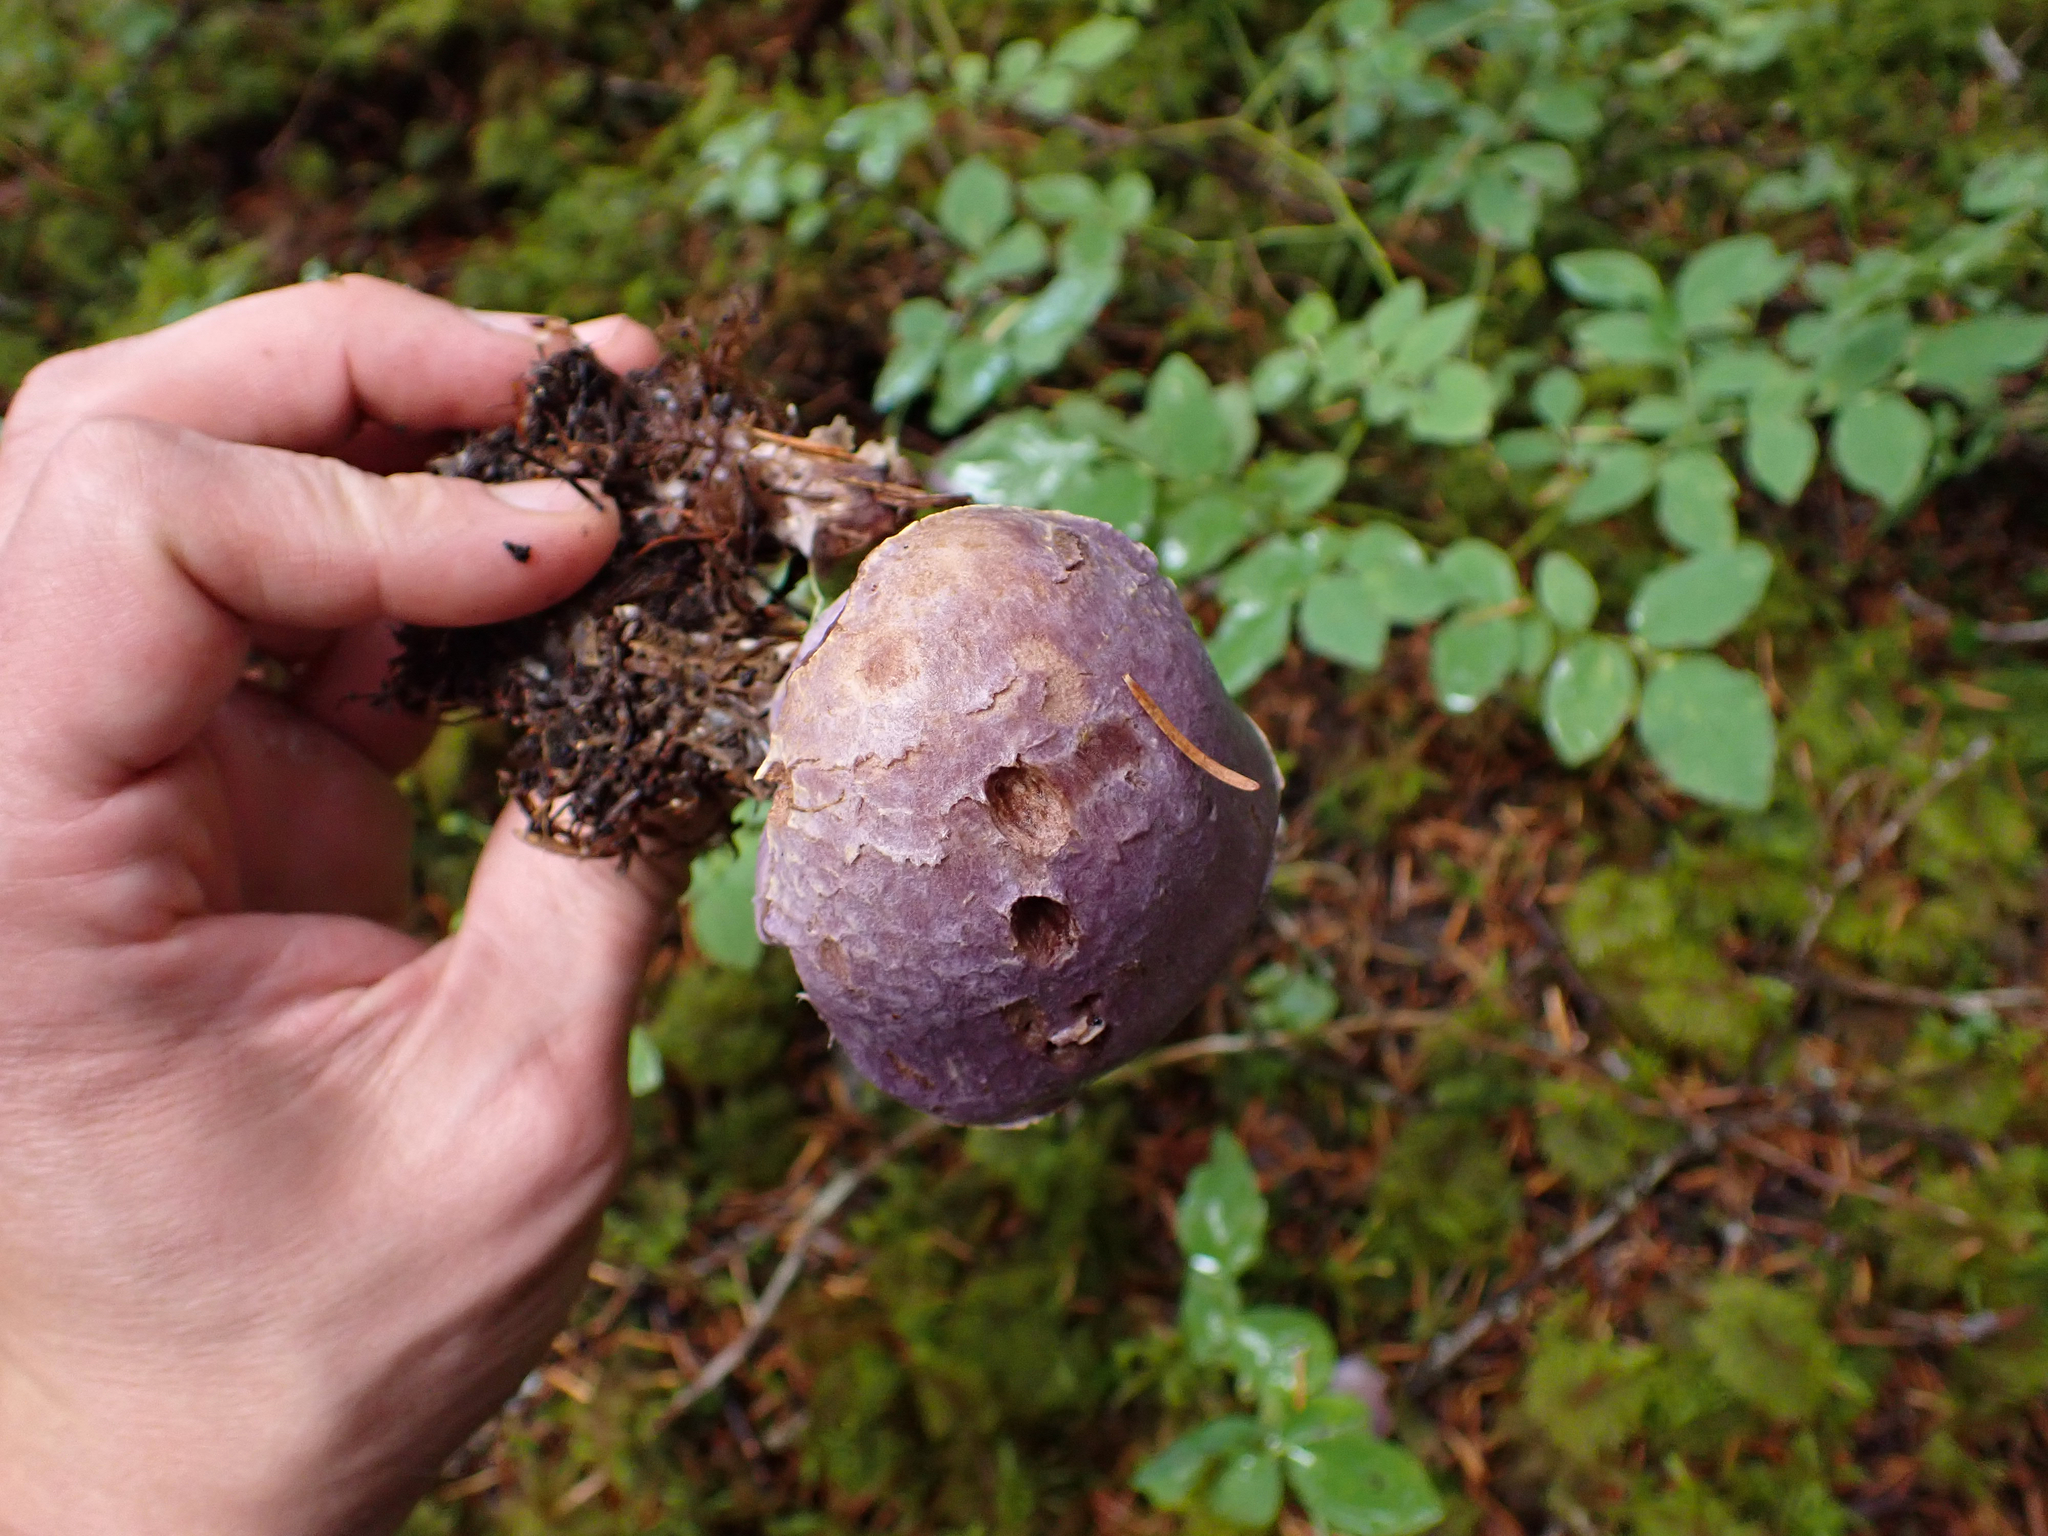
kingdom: Fungi
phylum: Basidiomycota
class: Agaricomycetes
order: Agaricales
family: Cortinariaceae
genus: Cortinarius
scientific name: Cortinarius traganus
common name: Gassy webcap
